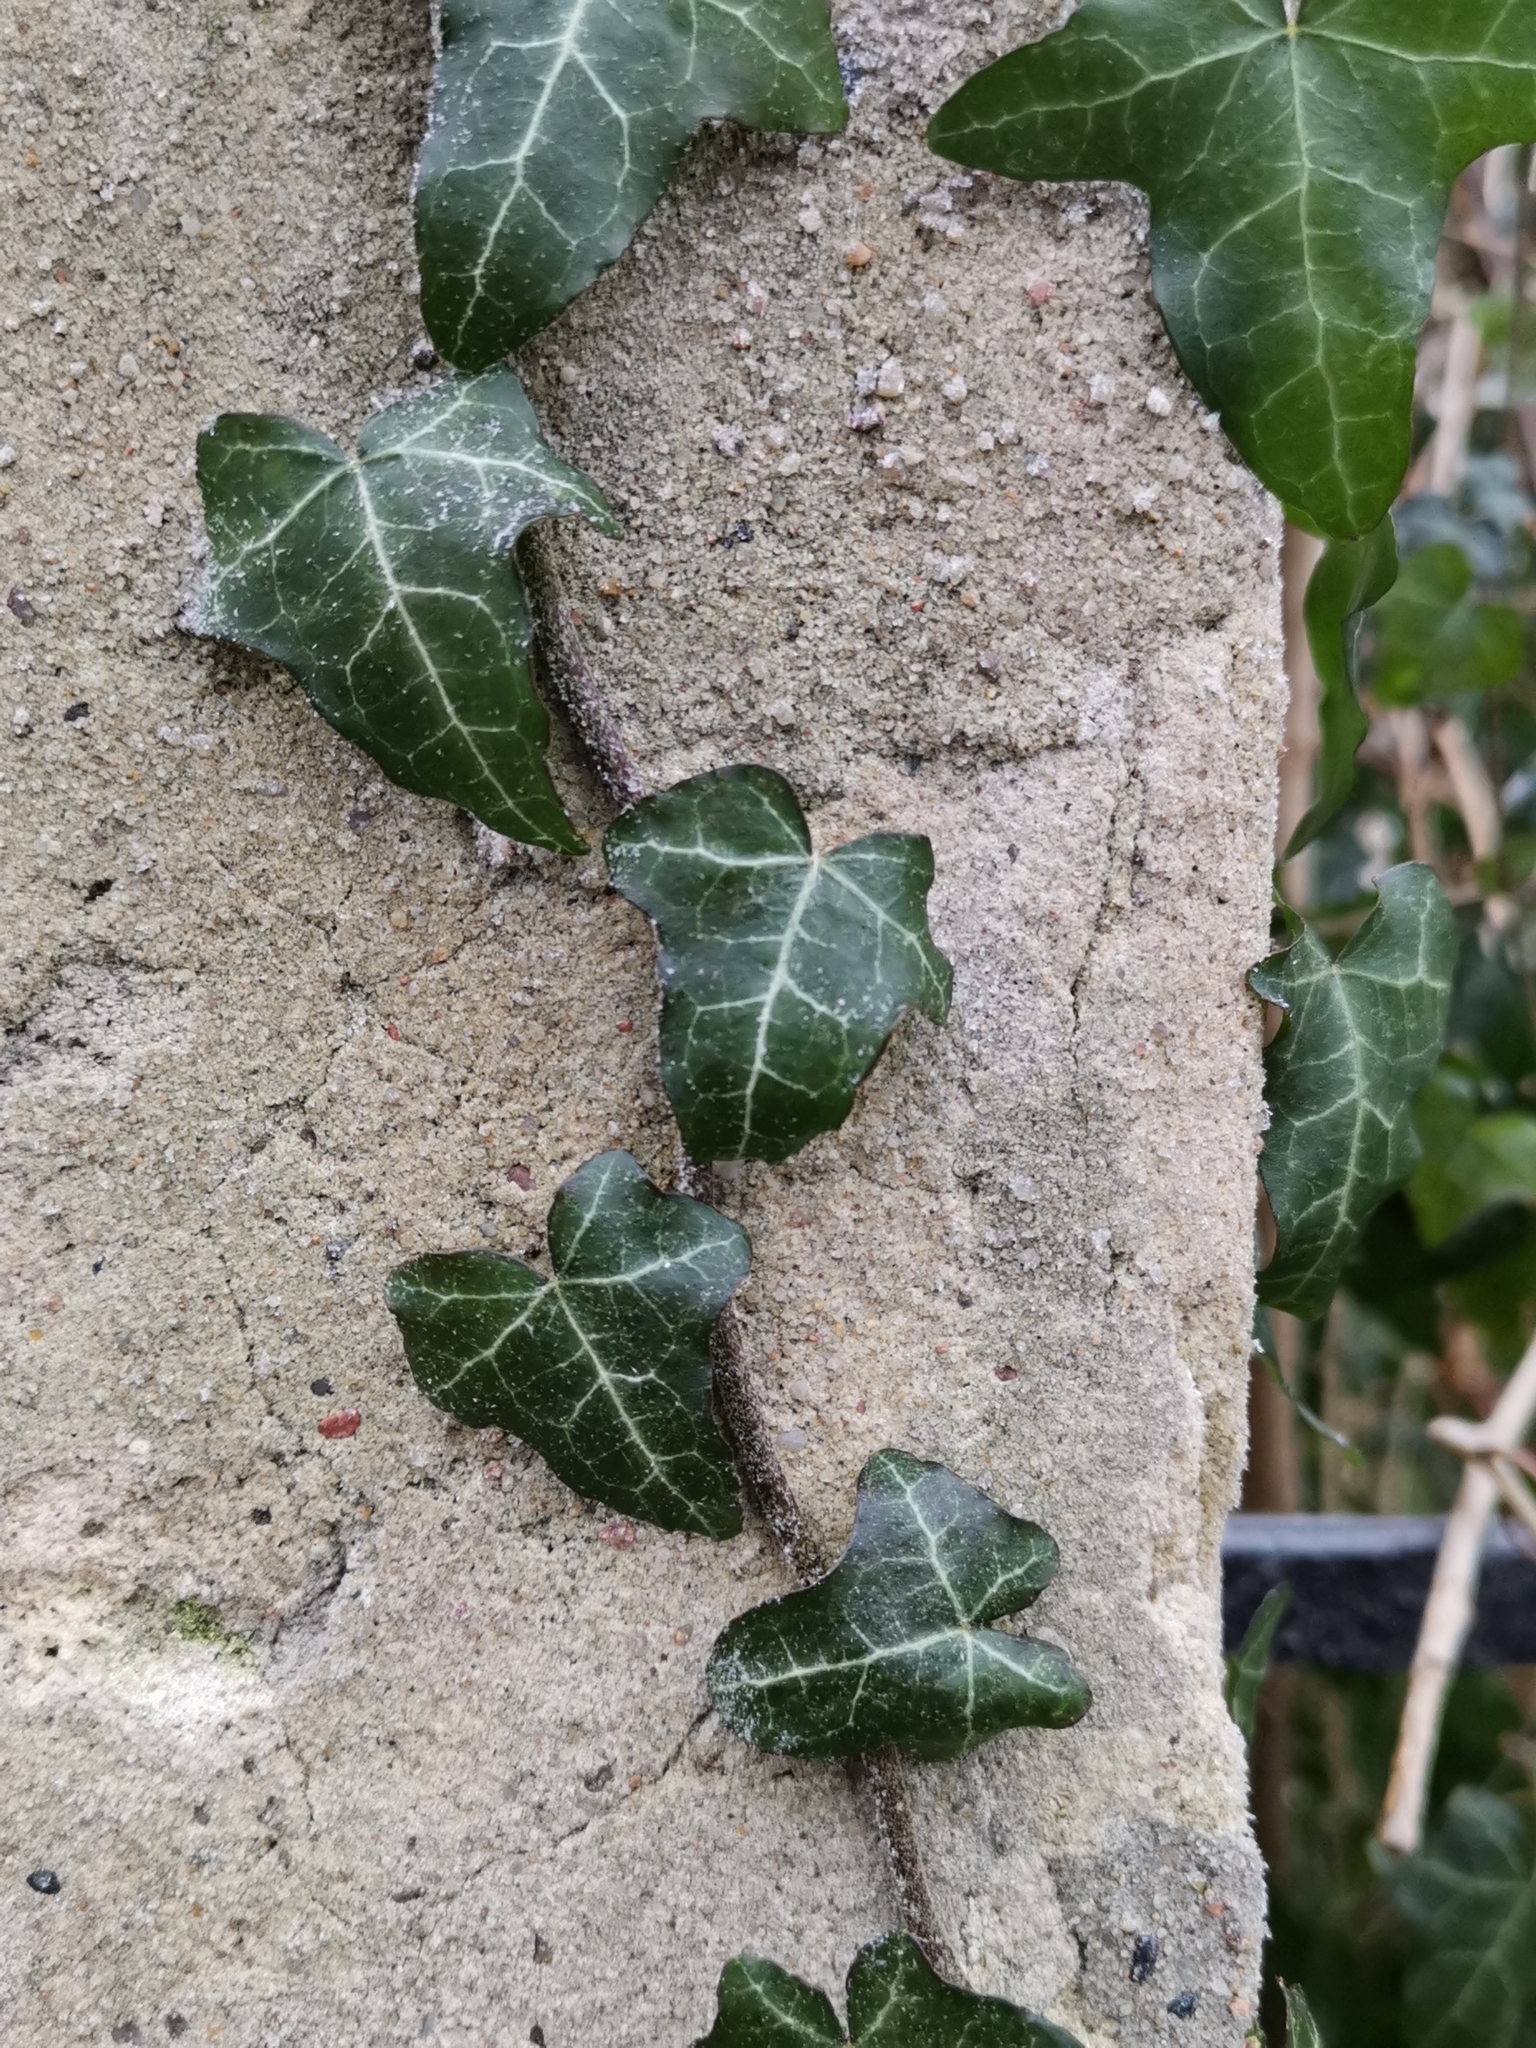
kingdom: Plantae
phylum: Tracheophyta
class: Magnoliopsida
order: Apiales
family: Araliaceae
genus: Hedera
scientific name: Hedera helix
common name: Ivy
